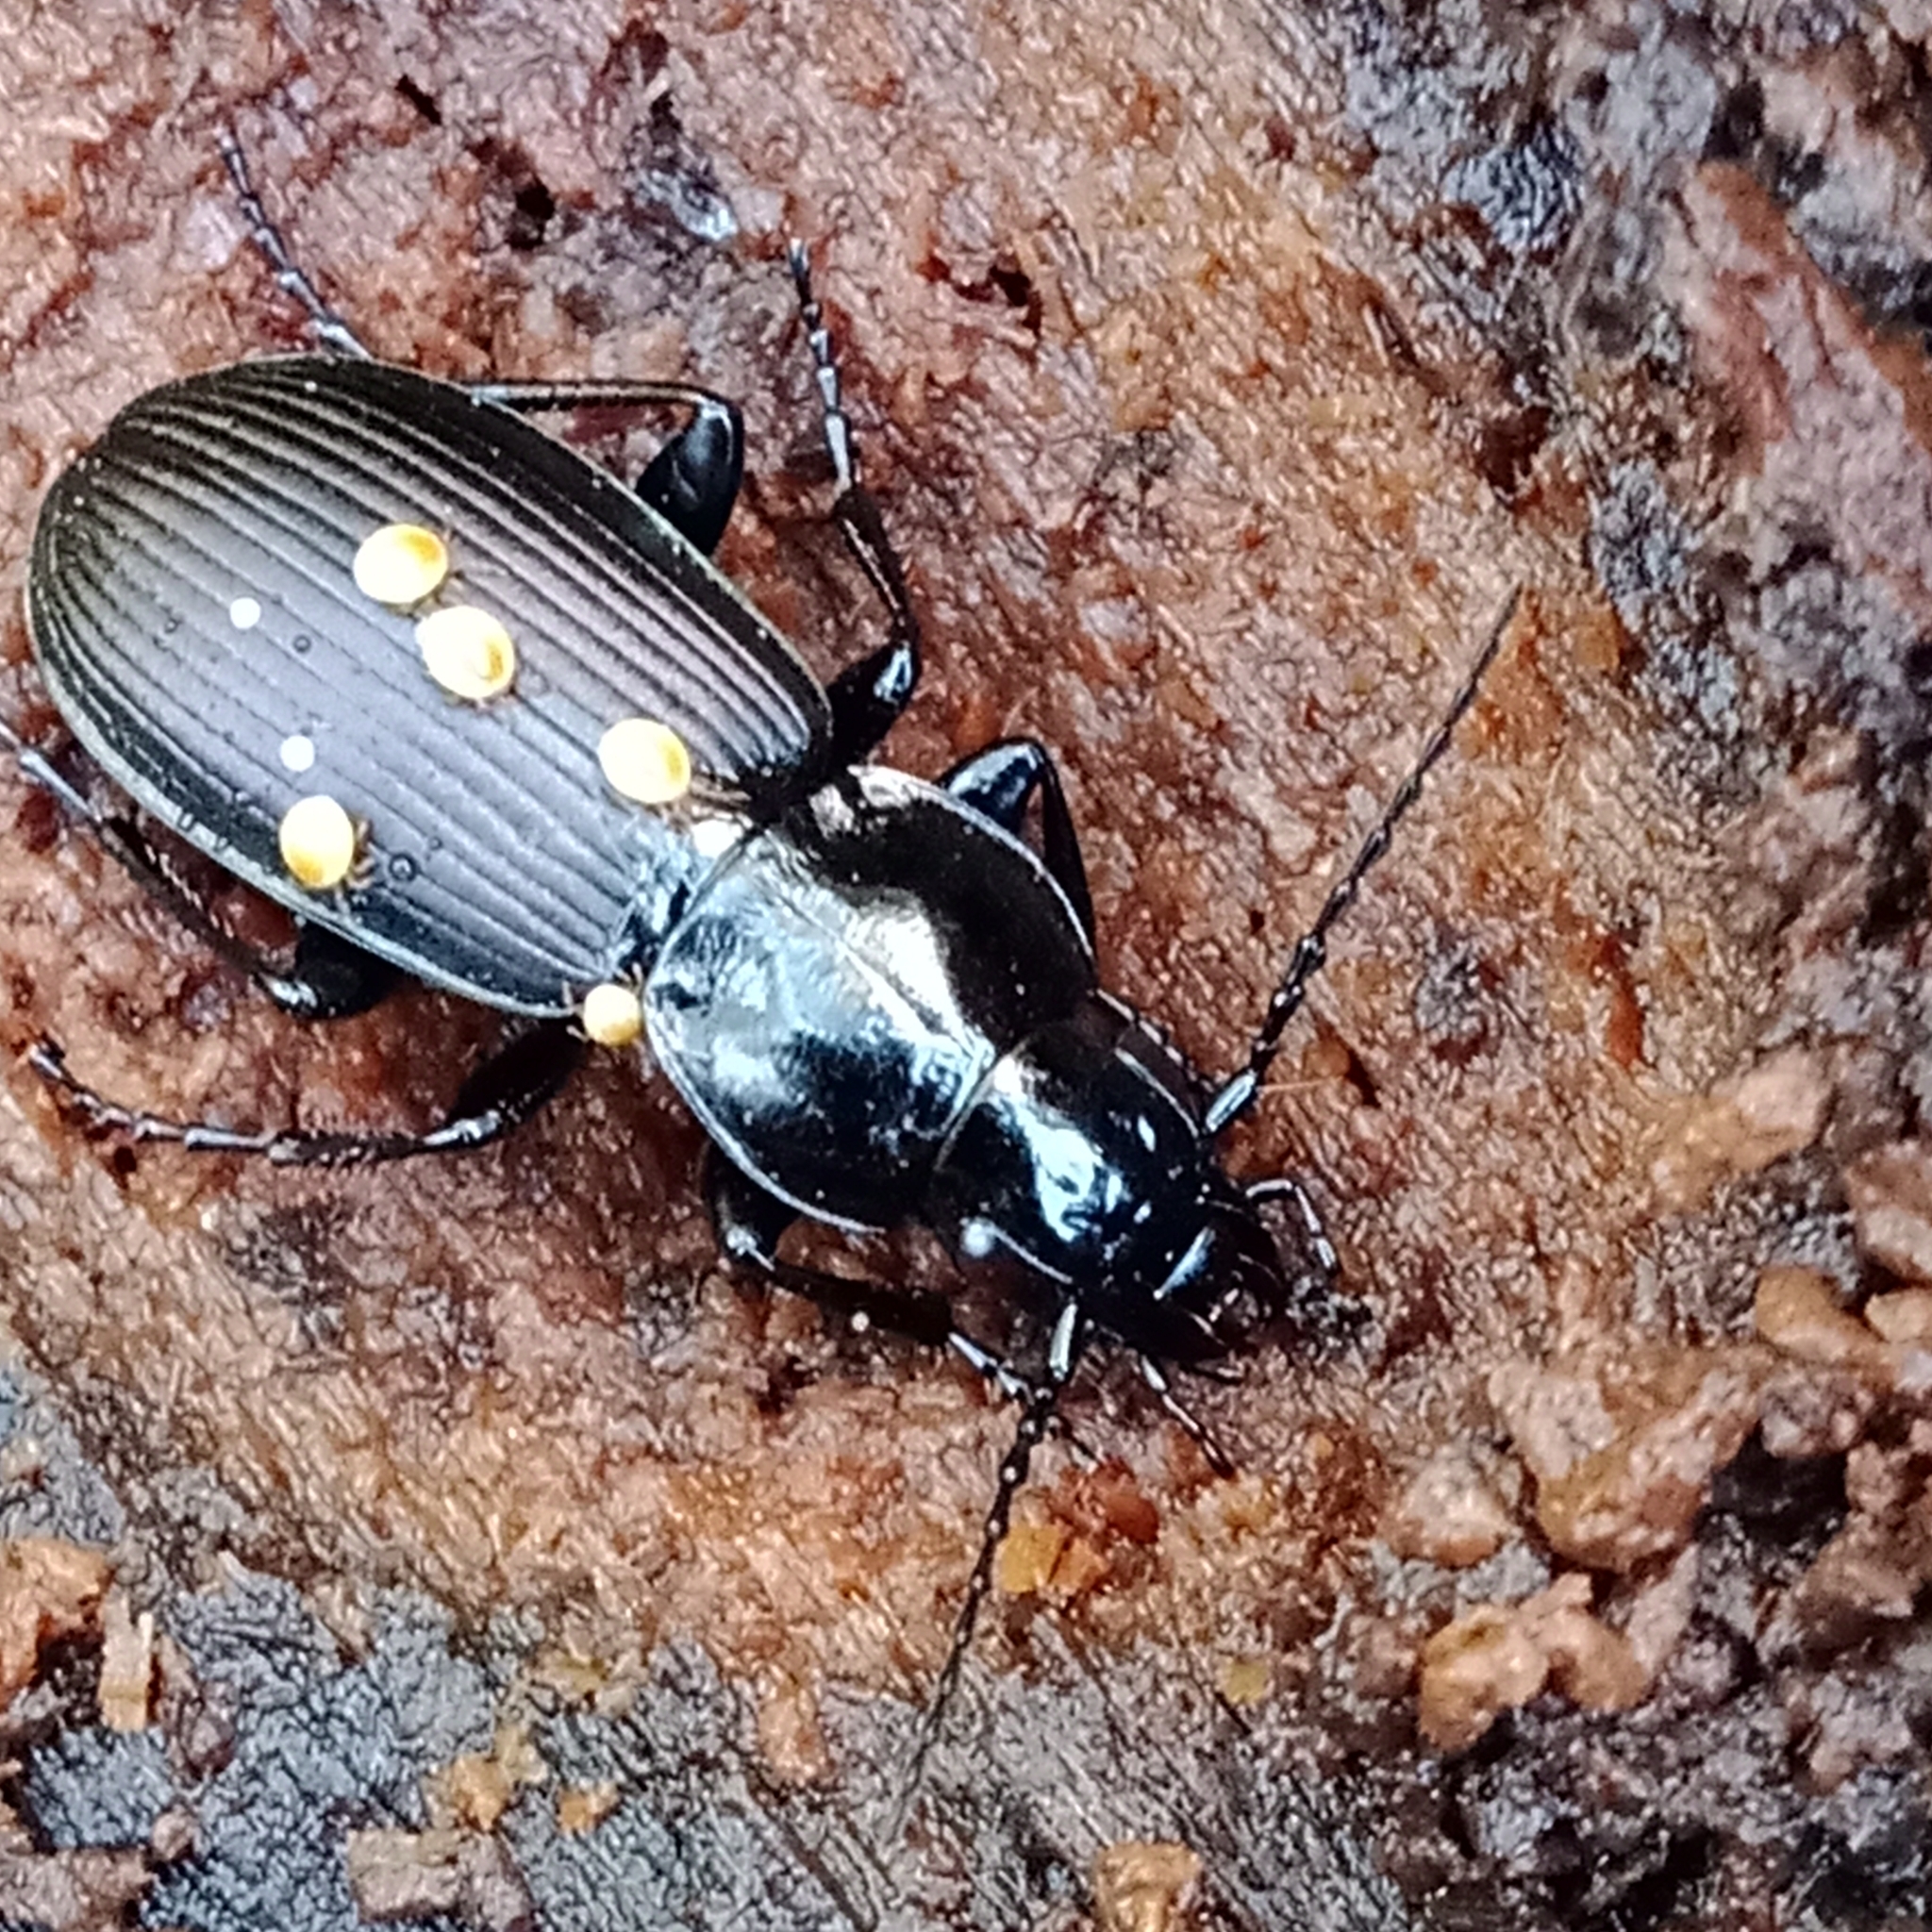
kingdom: Animalia
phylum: Arthropoda
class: Insecta
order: Coleoptera
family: Carabidae
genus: Pterostichus
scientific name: Pterostichus mannerheimii
